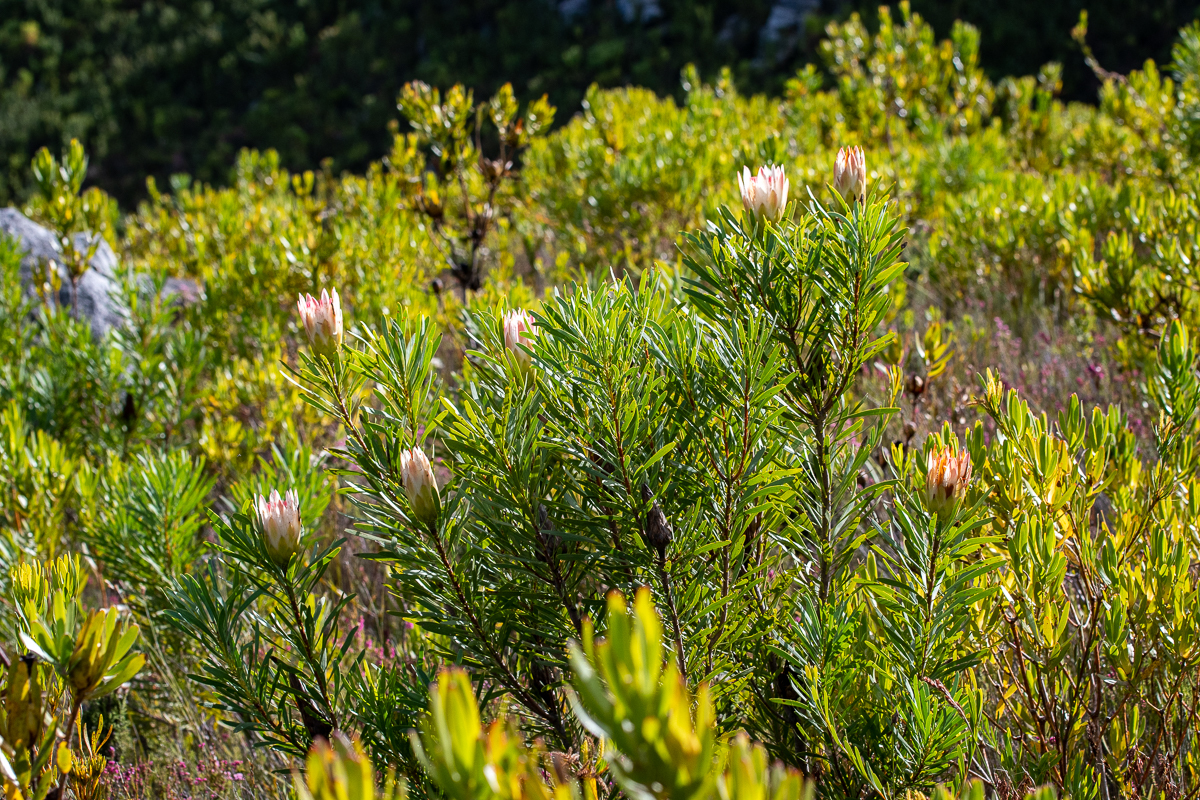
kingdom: Plantae
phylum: Tracheophyta
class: Magnoliopsida
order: Proteales
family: Proteaceae
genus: Protea
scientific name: Protea repens
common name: Sugarbush
